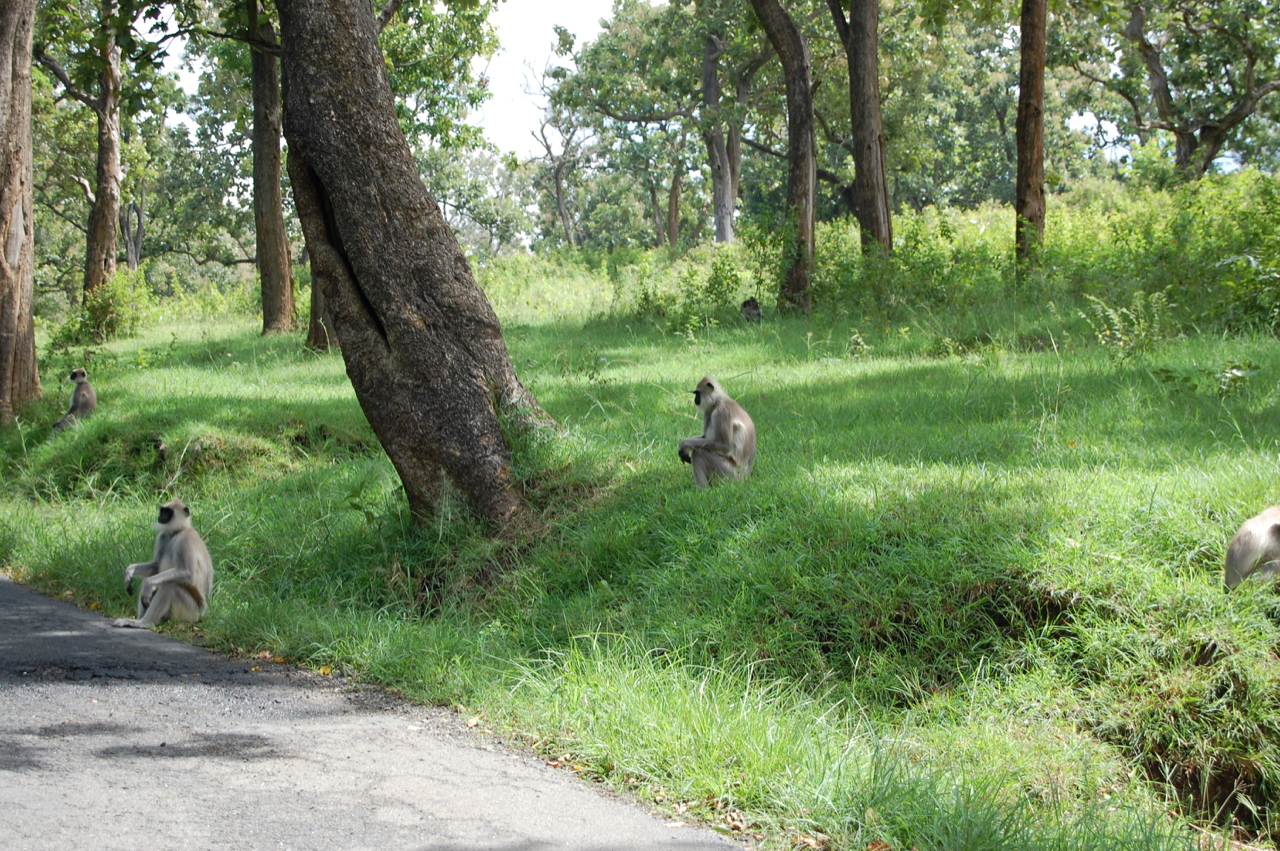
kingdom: Animalia
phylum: Chordata
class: Mammalia
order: Primates
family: Cercopithecidae
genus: Semnopithecus
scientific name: Semnopithecus priam
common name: Tufted gray langur
